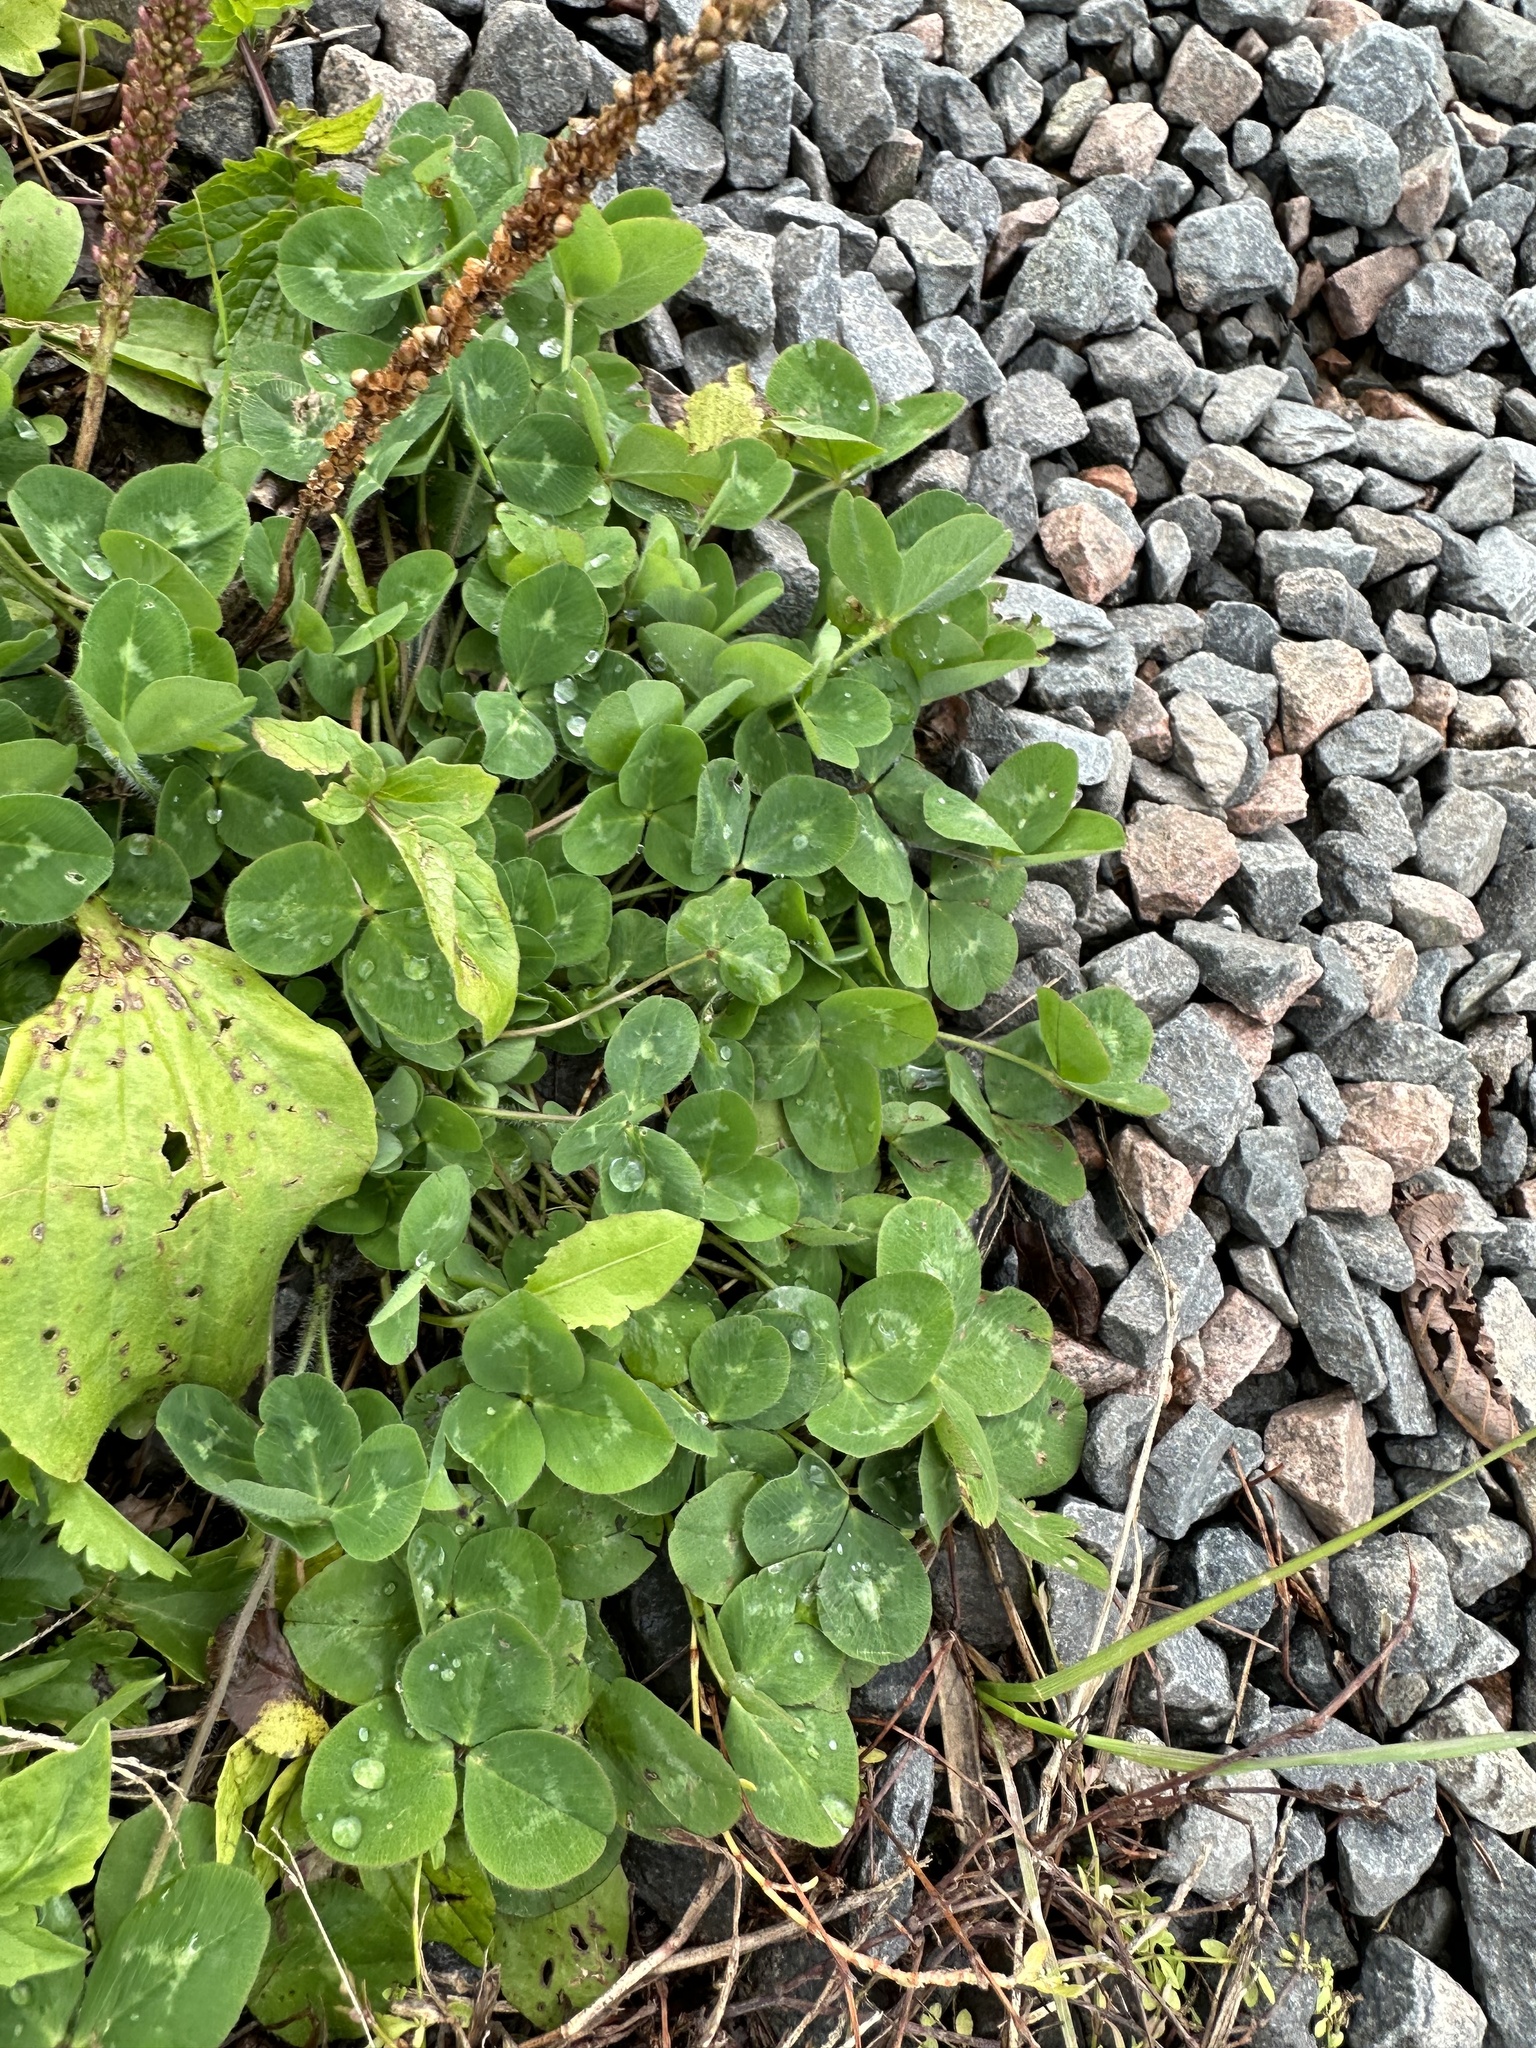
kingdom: Plantae
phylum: Tracheophyta
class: Magnoliopsida
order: Fabales
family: Fabaceae
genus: Trifolium
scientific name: Trifolium pratense
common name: Red clover
